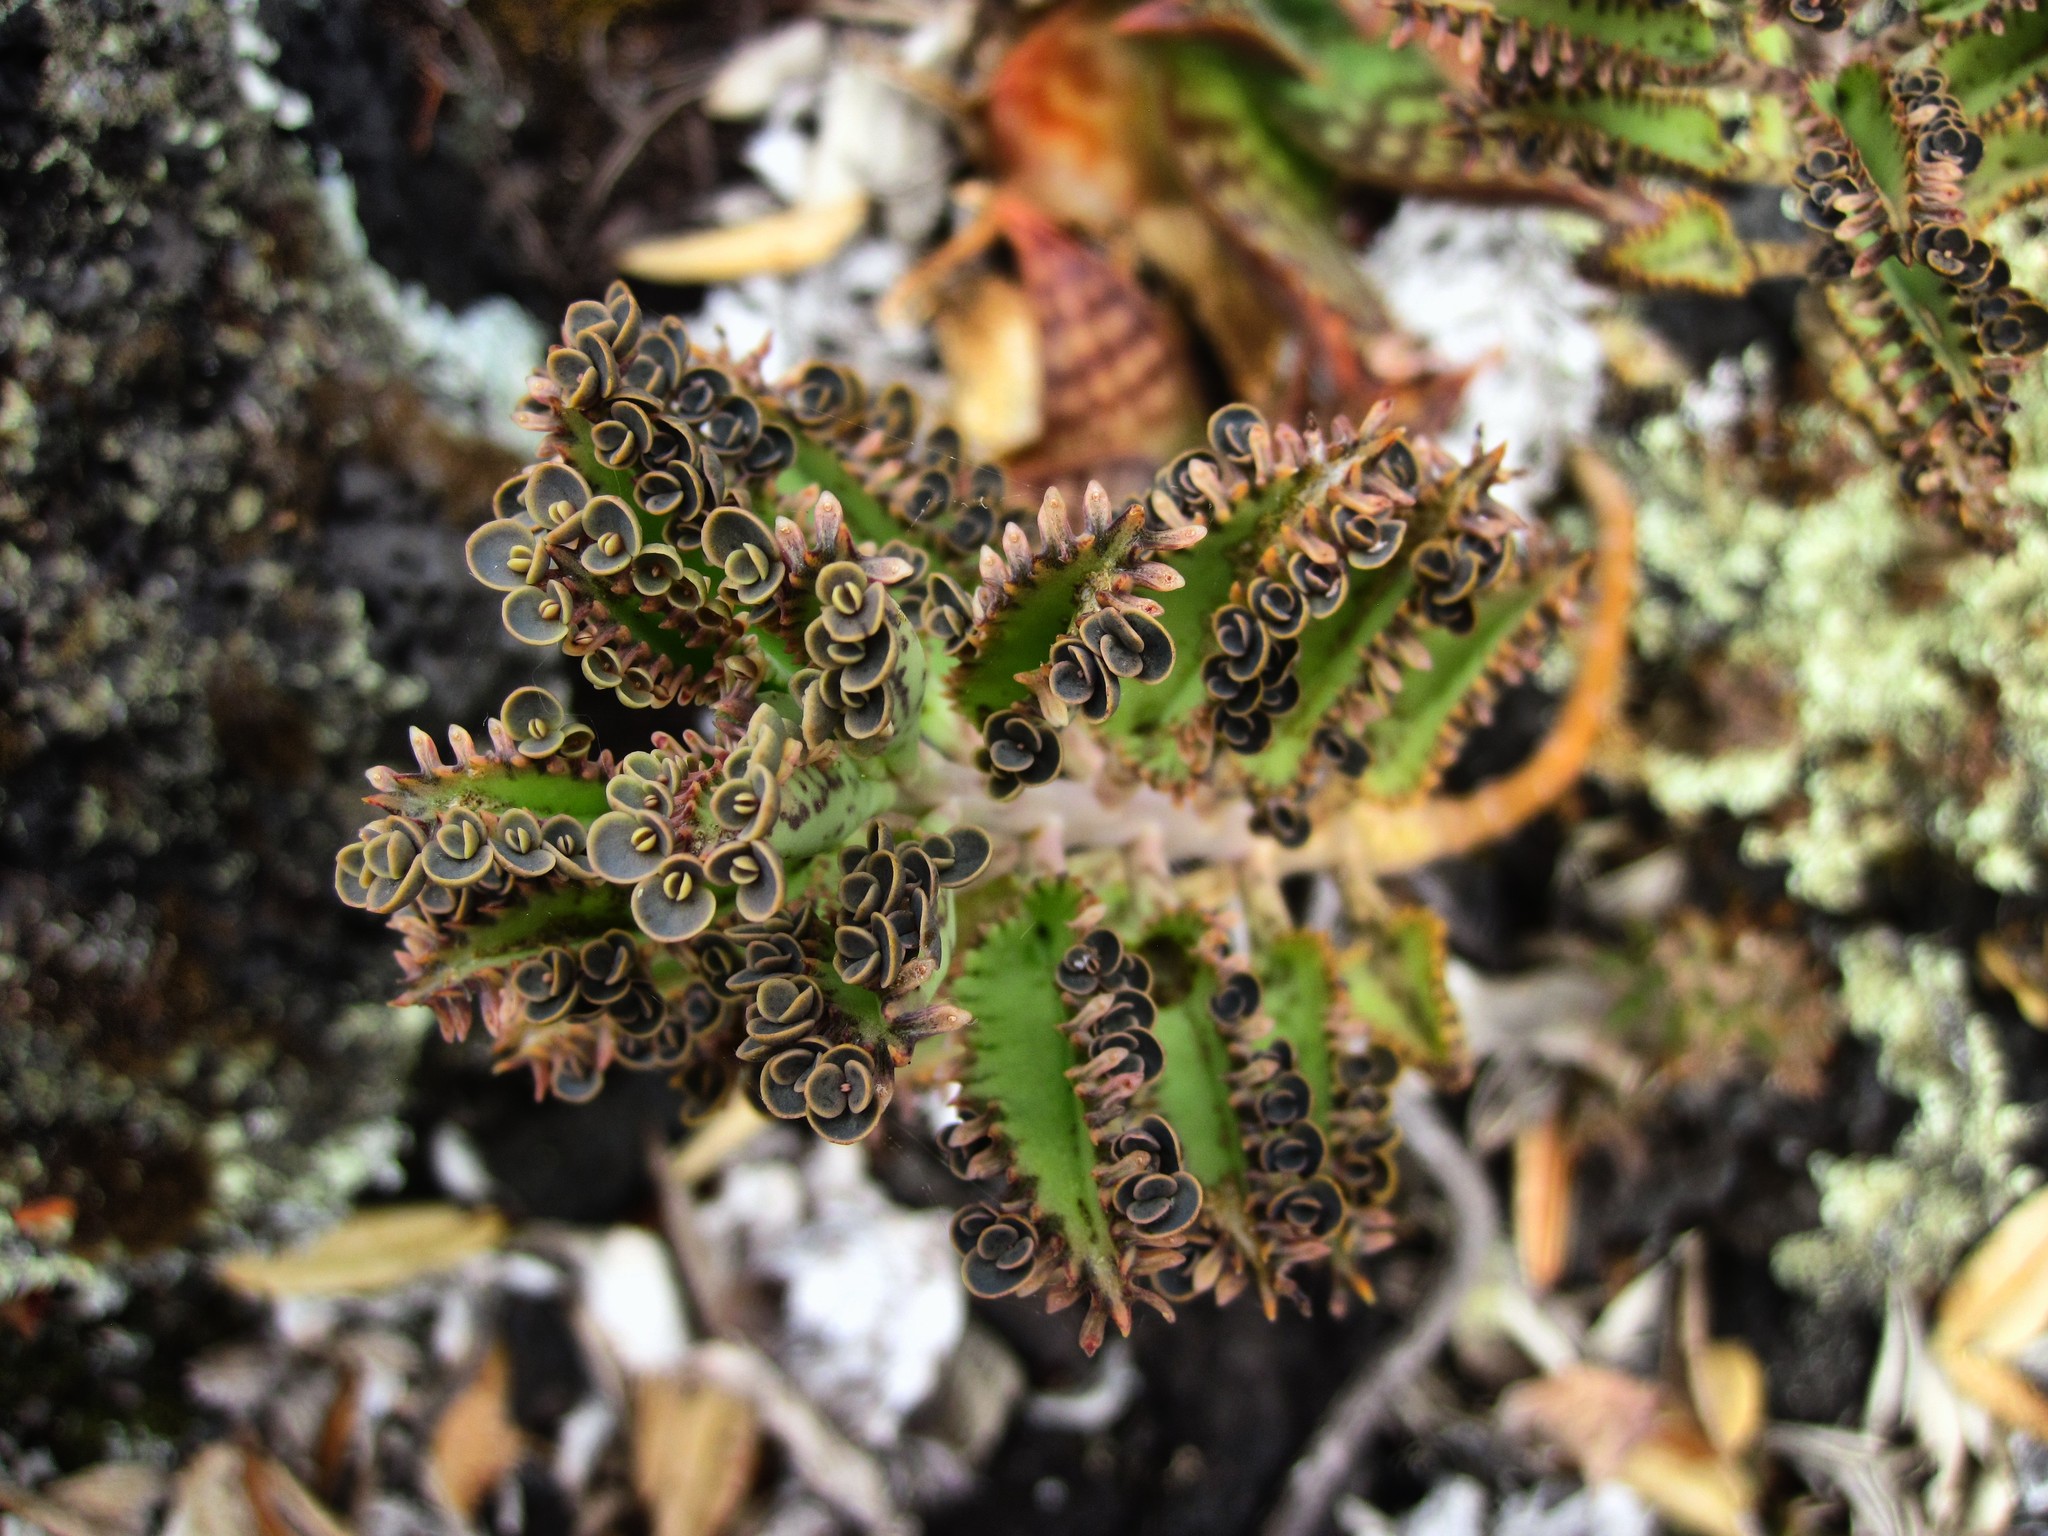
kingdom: Plantae
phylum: Tracheophyta
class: Magnoliopsida
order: Saxifragales
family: Crassulaceae
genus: Kalanchoe
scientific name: Kalanchoe houghtonii
